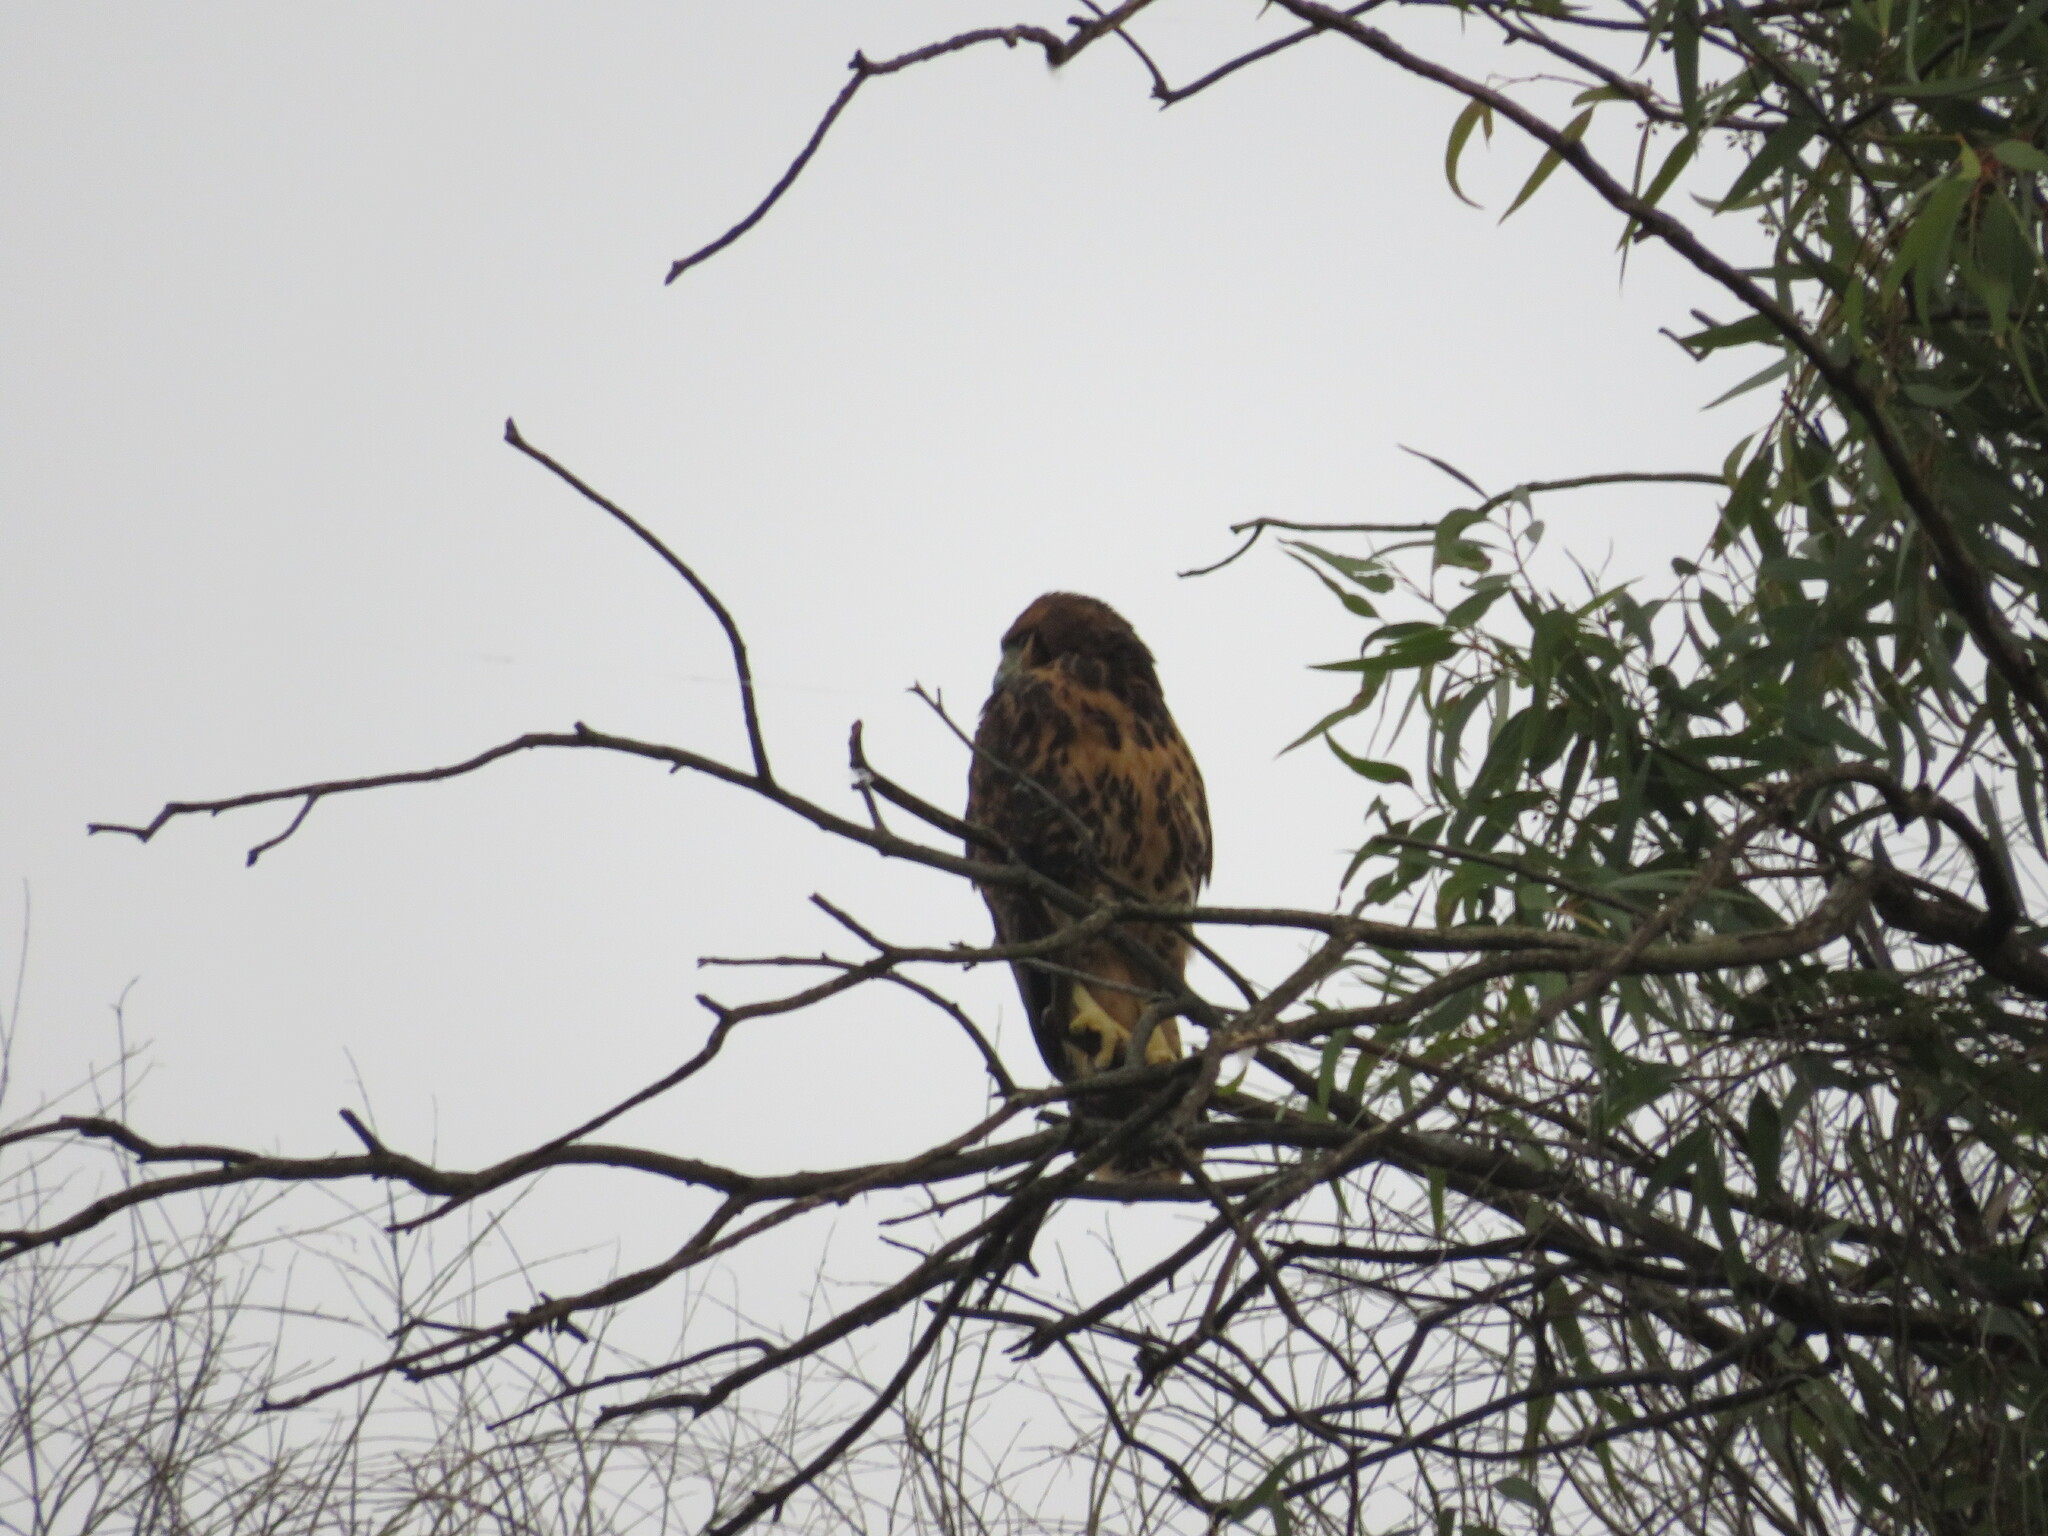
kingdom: Animalia
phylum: Chordata
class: Aves
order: Accipitriformes
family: Accipitridae
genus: Parabuteo
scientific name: Parabuteo unicinctus
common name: Harris's hawk
